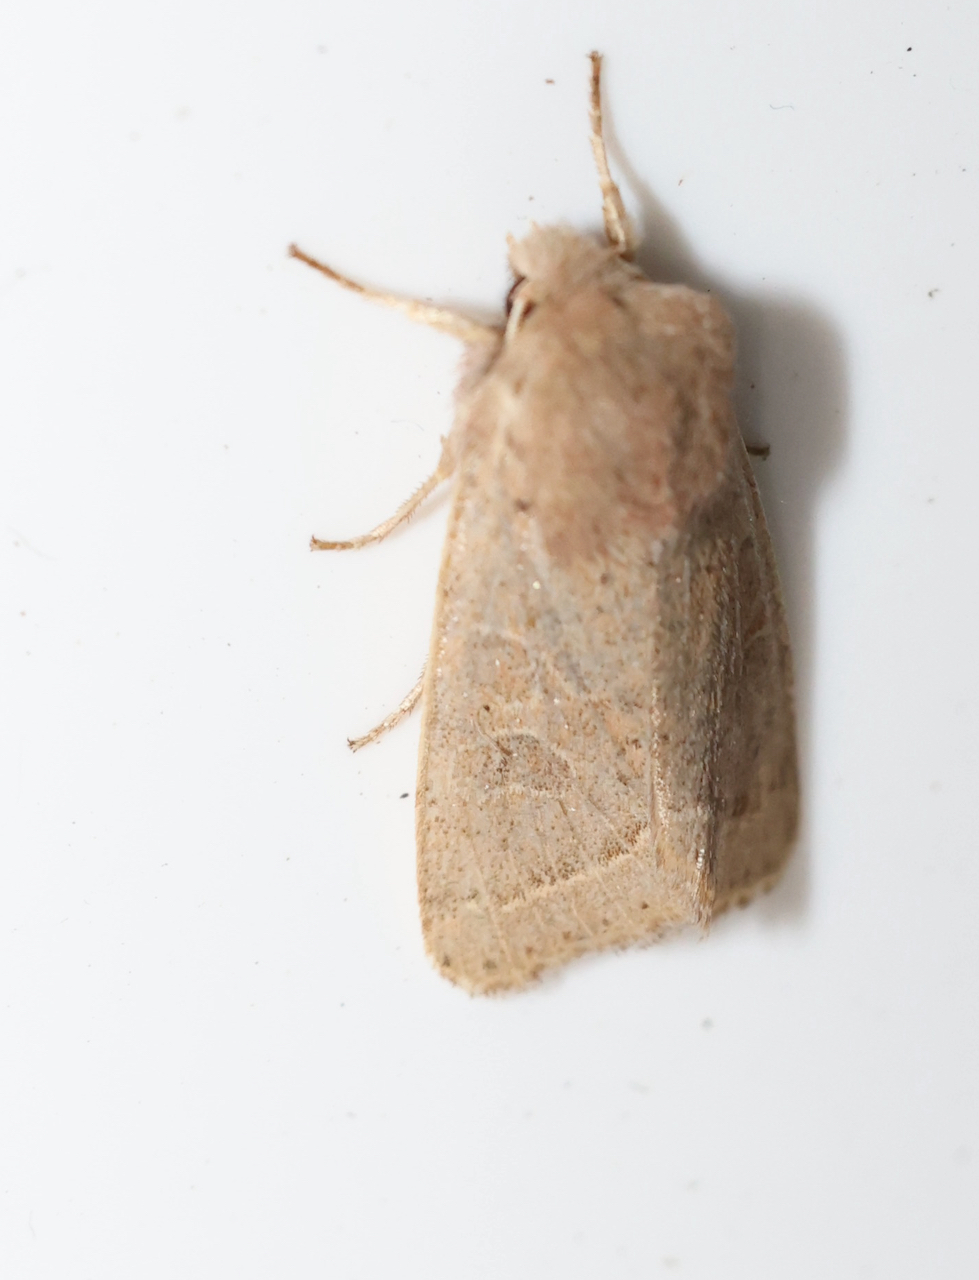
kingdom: Animalia
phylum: Arthropoda
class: Insecta
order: Lepidoptera
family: Noctuidae
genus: Orthosia
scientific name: Orthosia cerasi
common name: Common quaker
